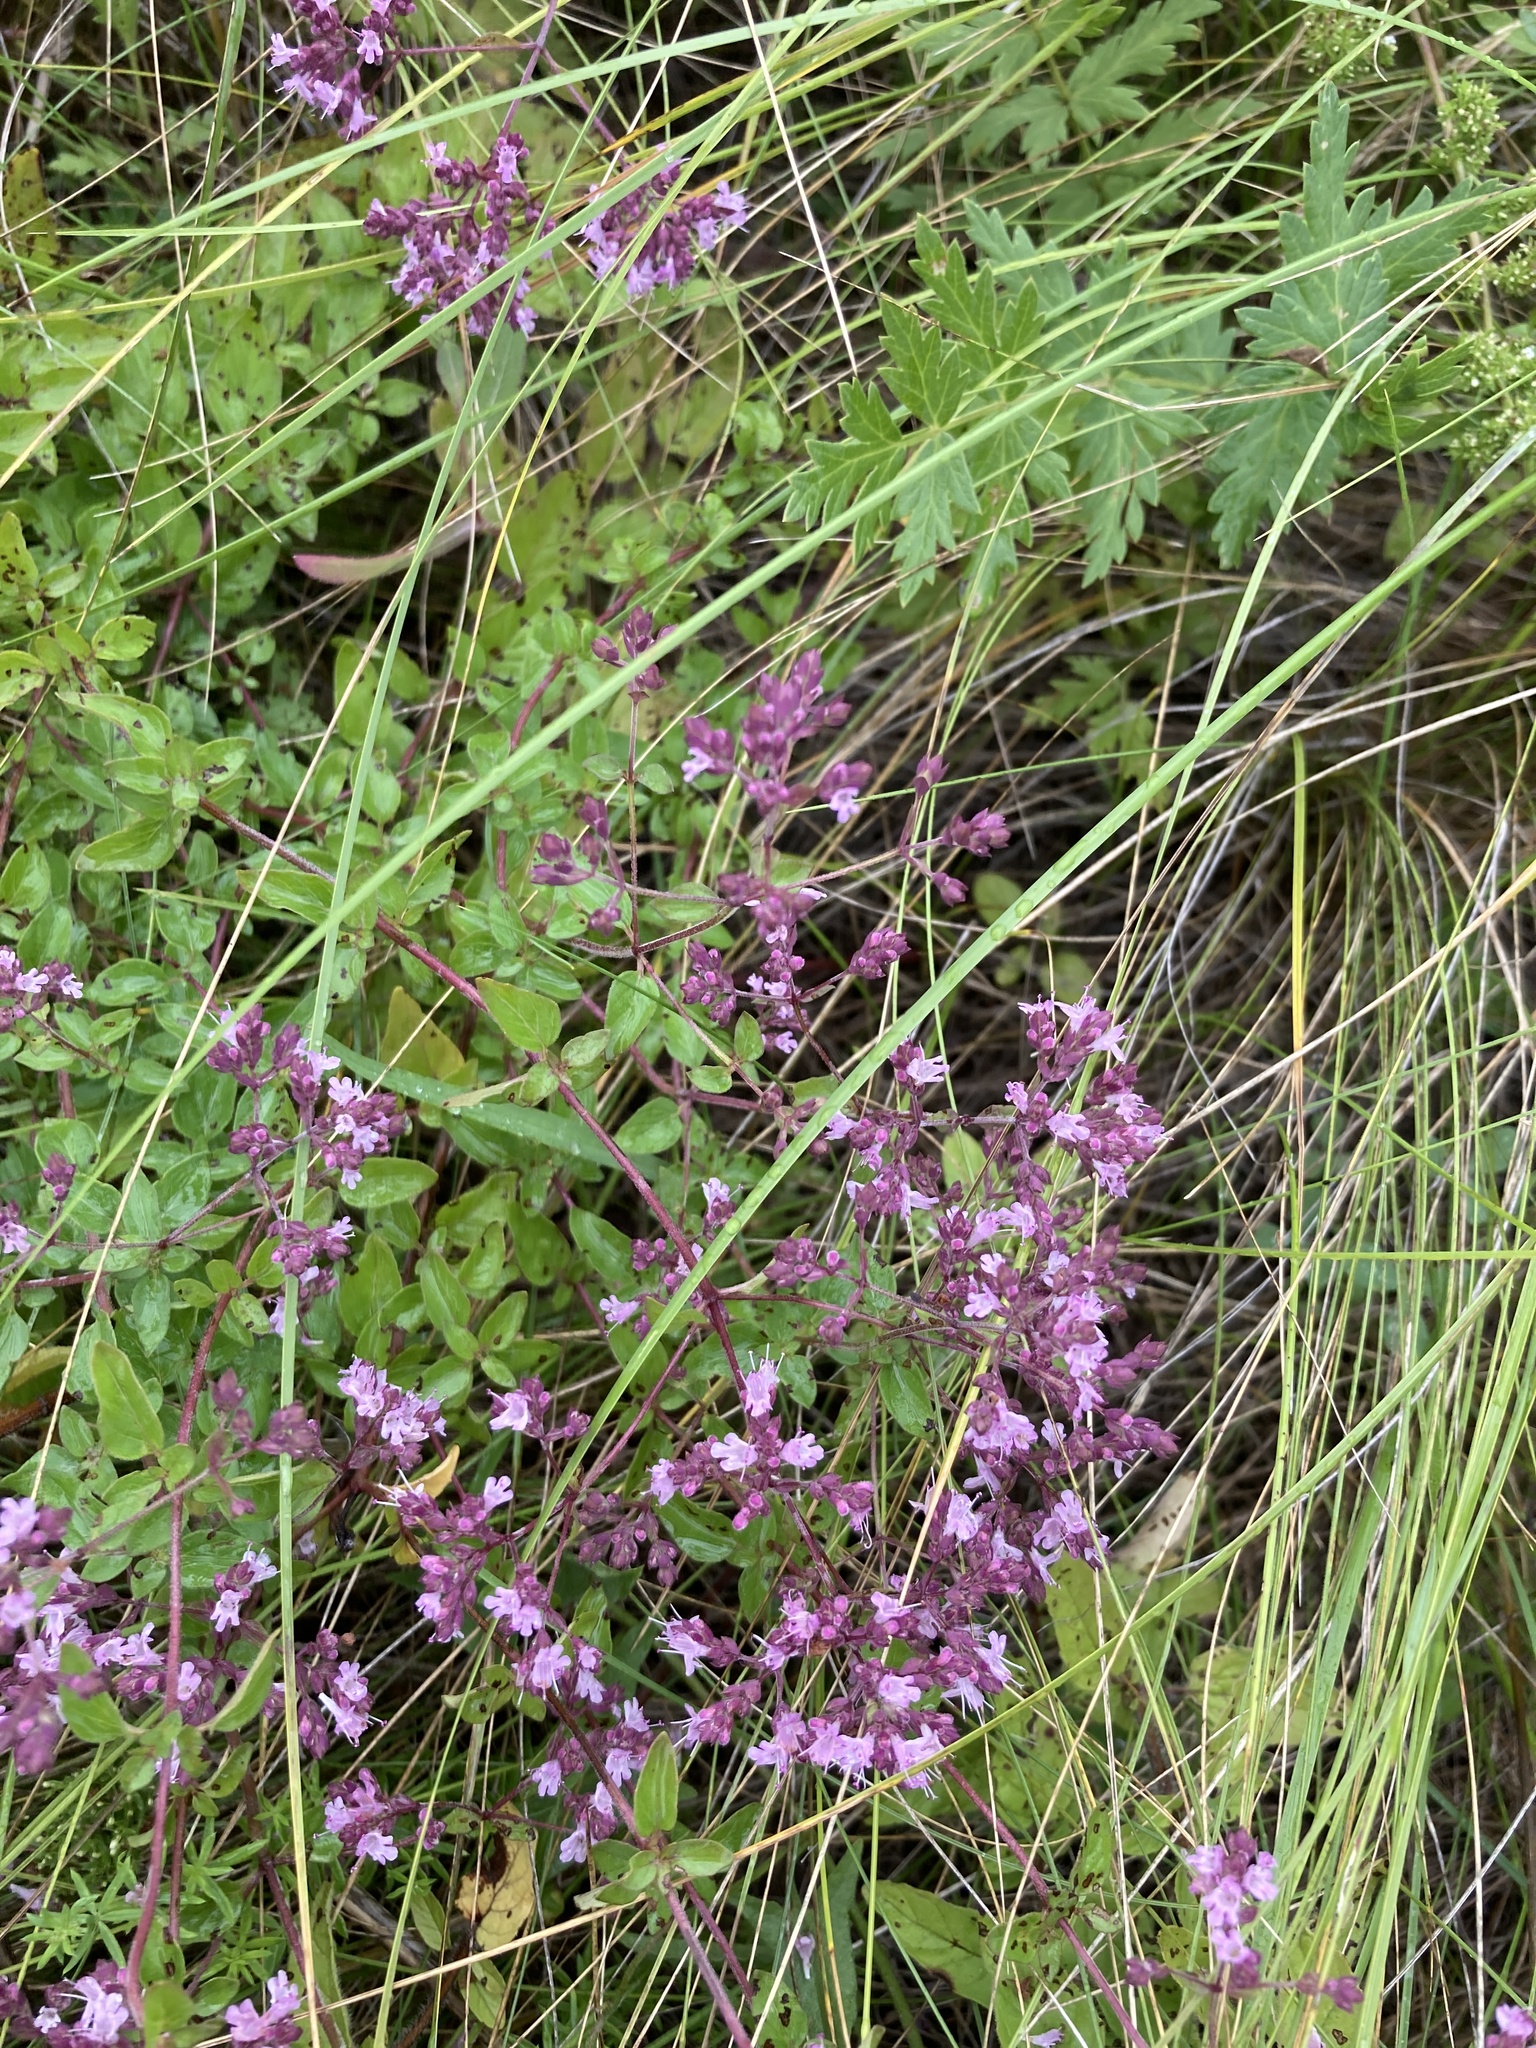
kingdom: Plantae
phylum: Tracheophyta
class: Magnoliopsida
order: Lamiales
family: Lamiaceae
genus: Origanum
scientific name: Origanum vulgare
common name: Wild marjoram
